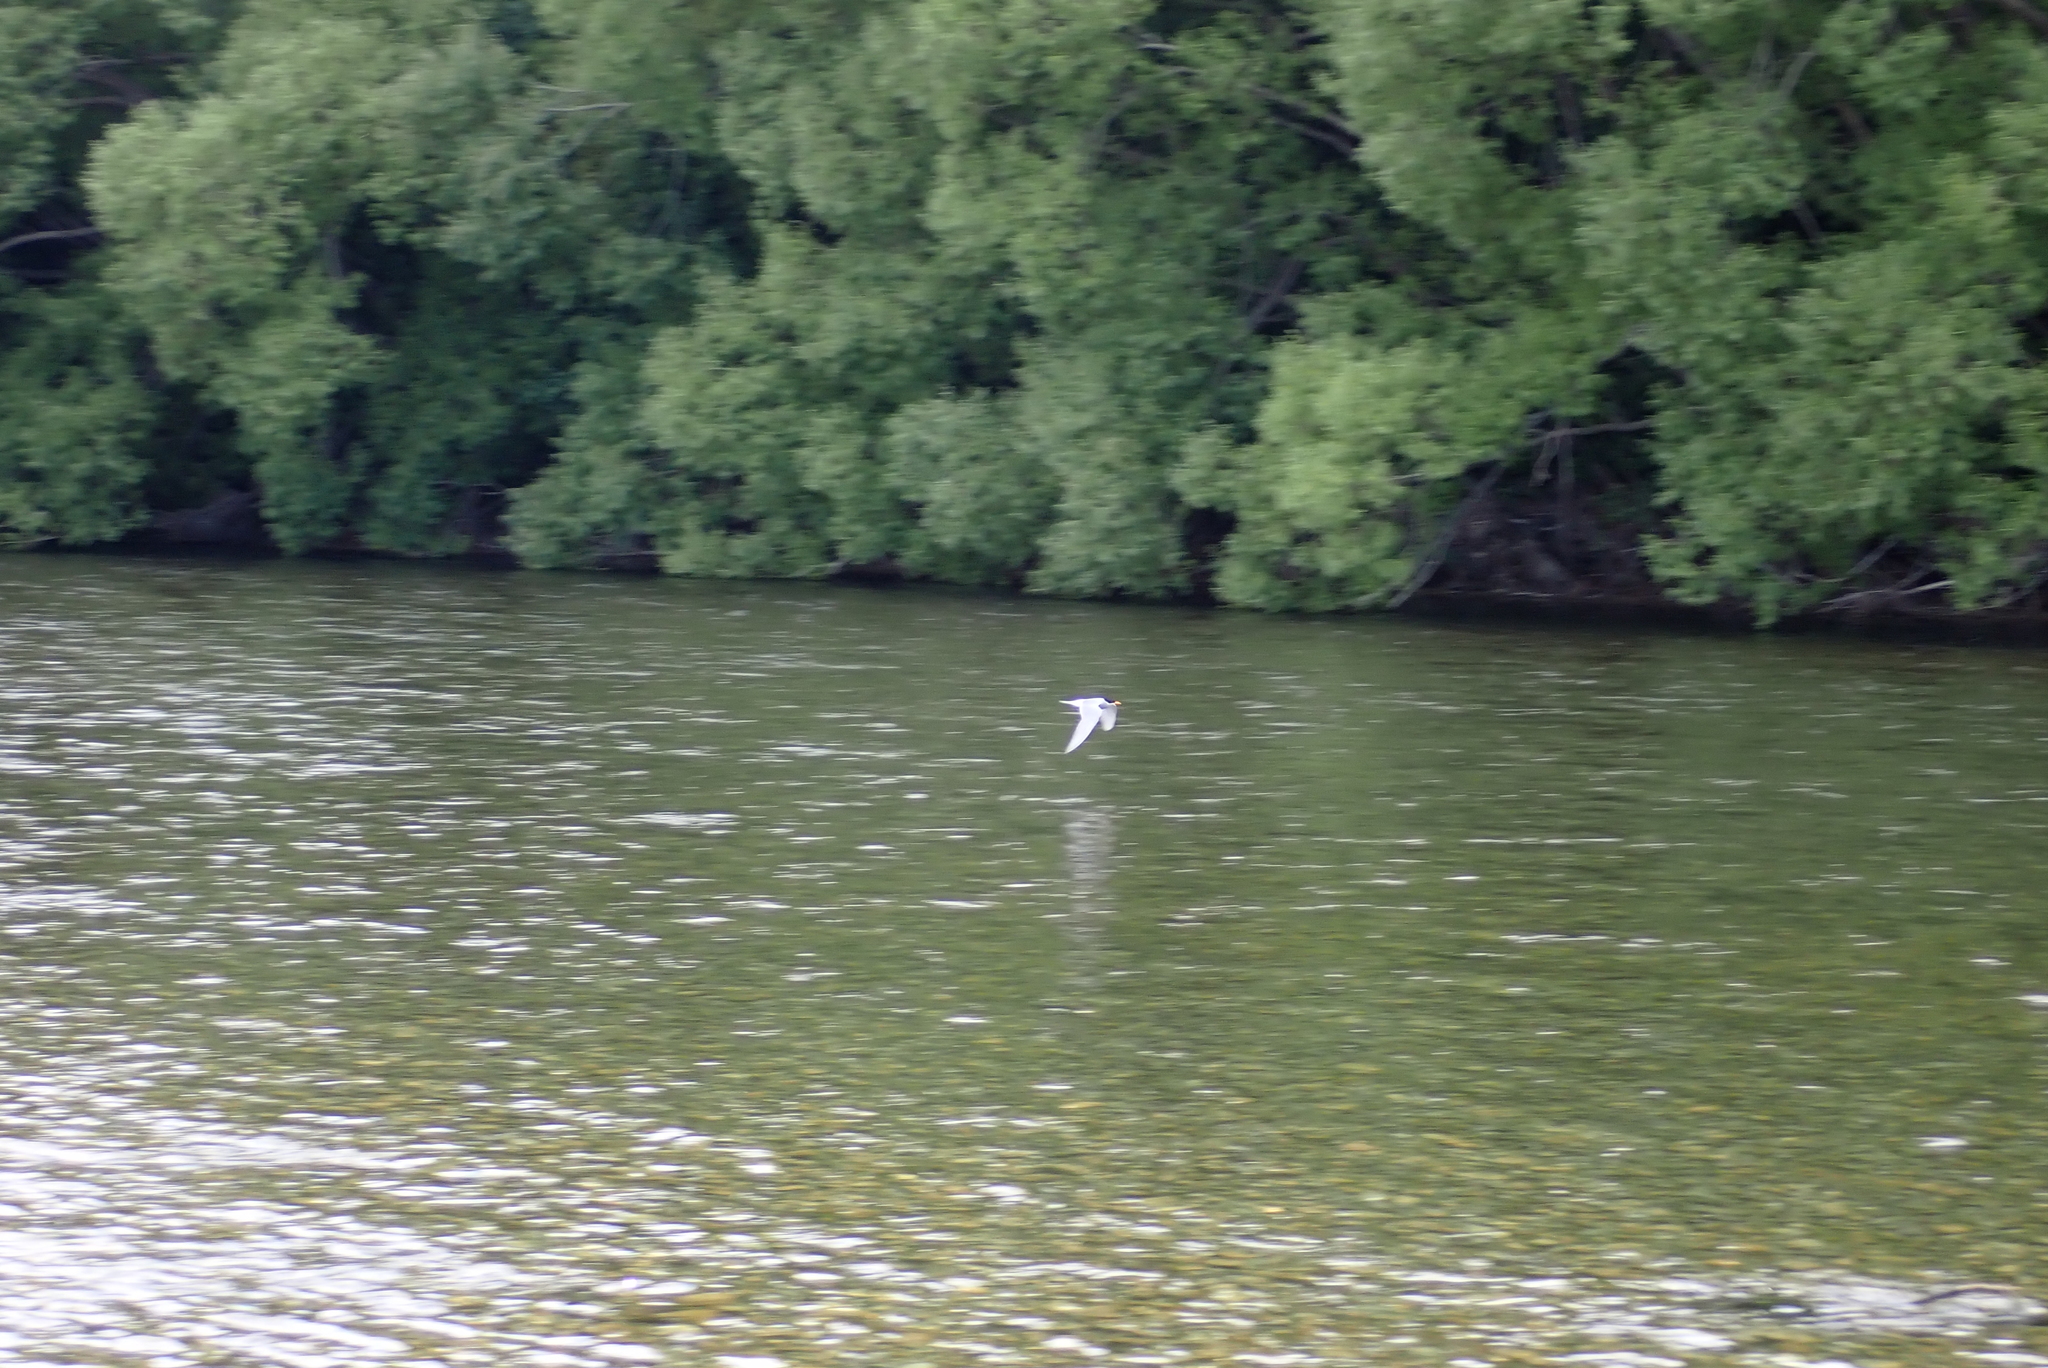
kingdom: Animalia
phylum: Chordata
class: Aves
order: Charadriiformes
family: Laridae
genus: Chlidonias
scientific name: Chlidonias albostriatus
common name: Black-fronted tern
